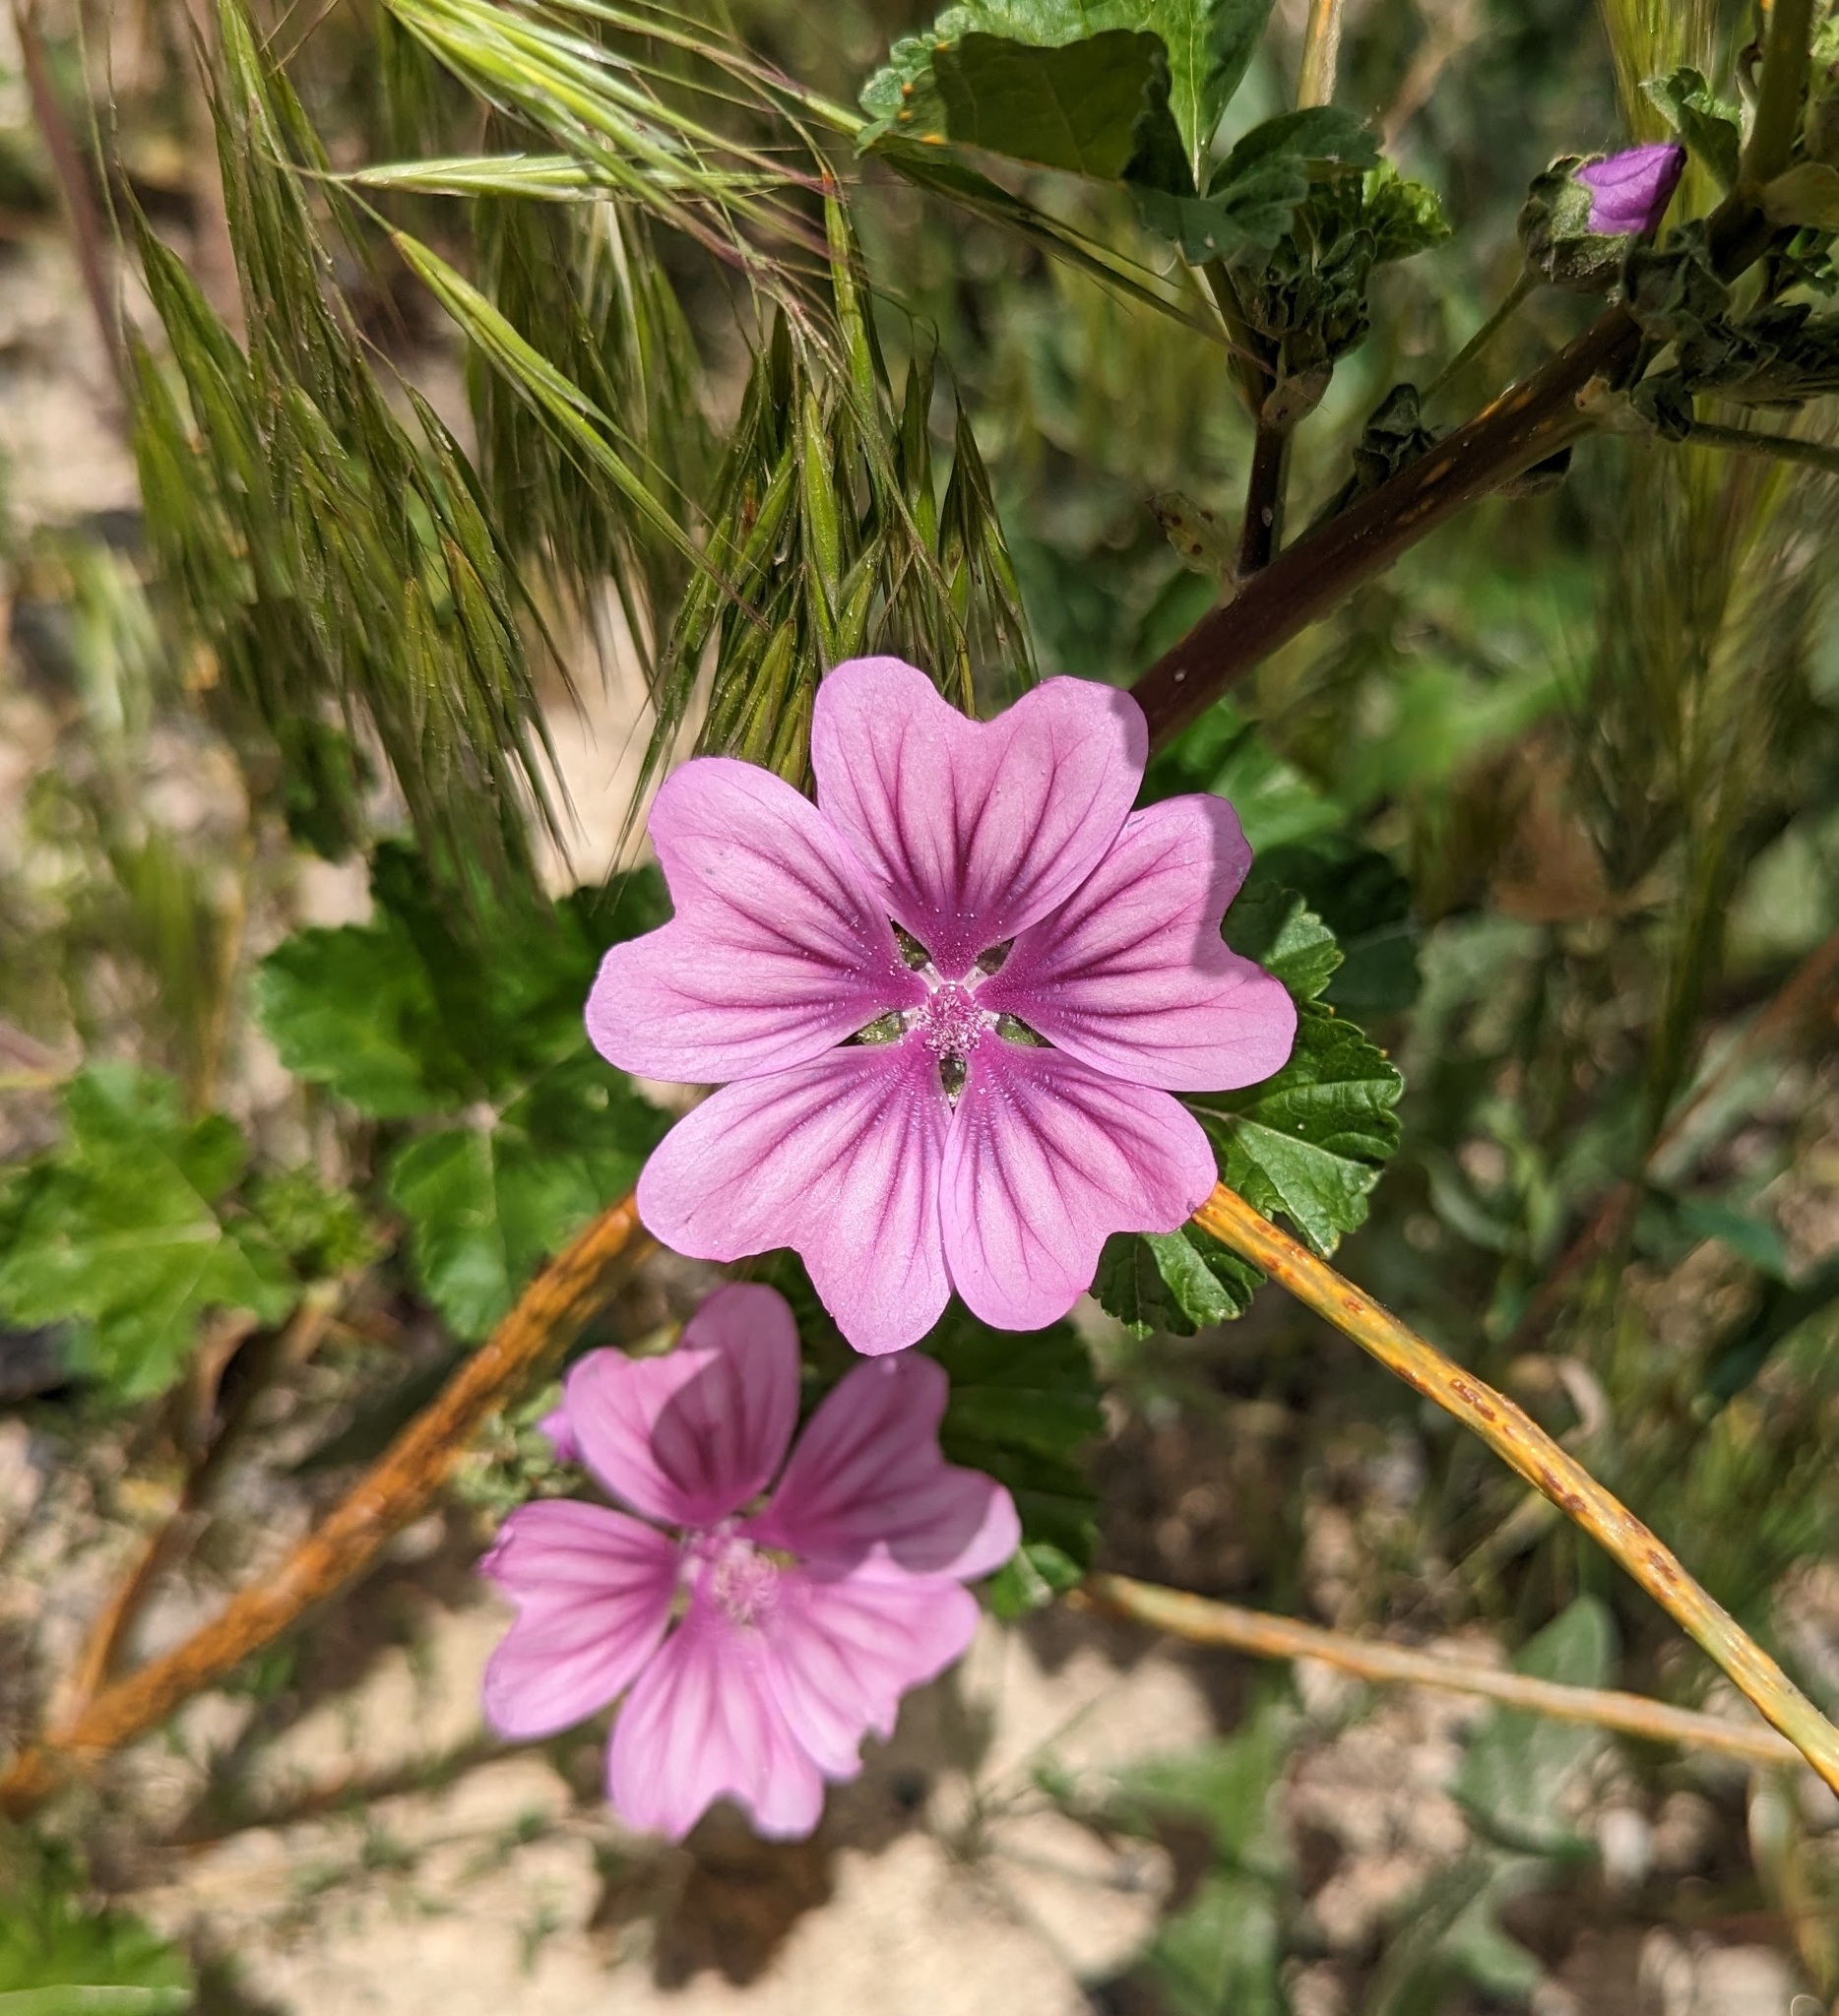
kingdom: Plantae
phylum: Tracheophyta
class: Magnoliopsida
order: Malvales
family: Malvaceae
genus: Malva
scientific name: Malva sylvestris
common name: Common mallow
